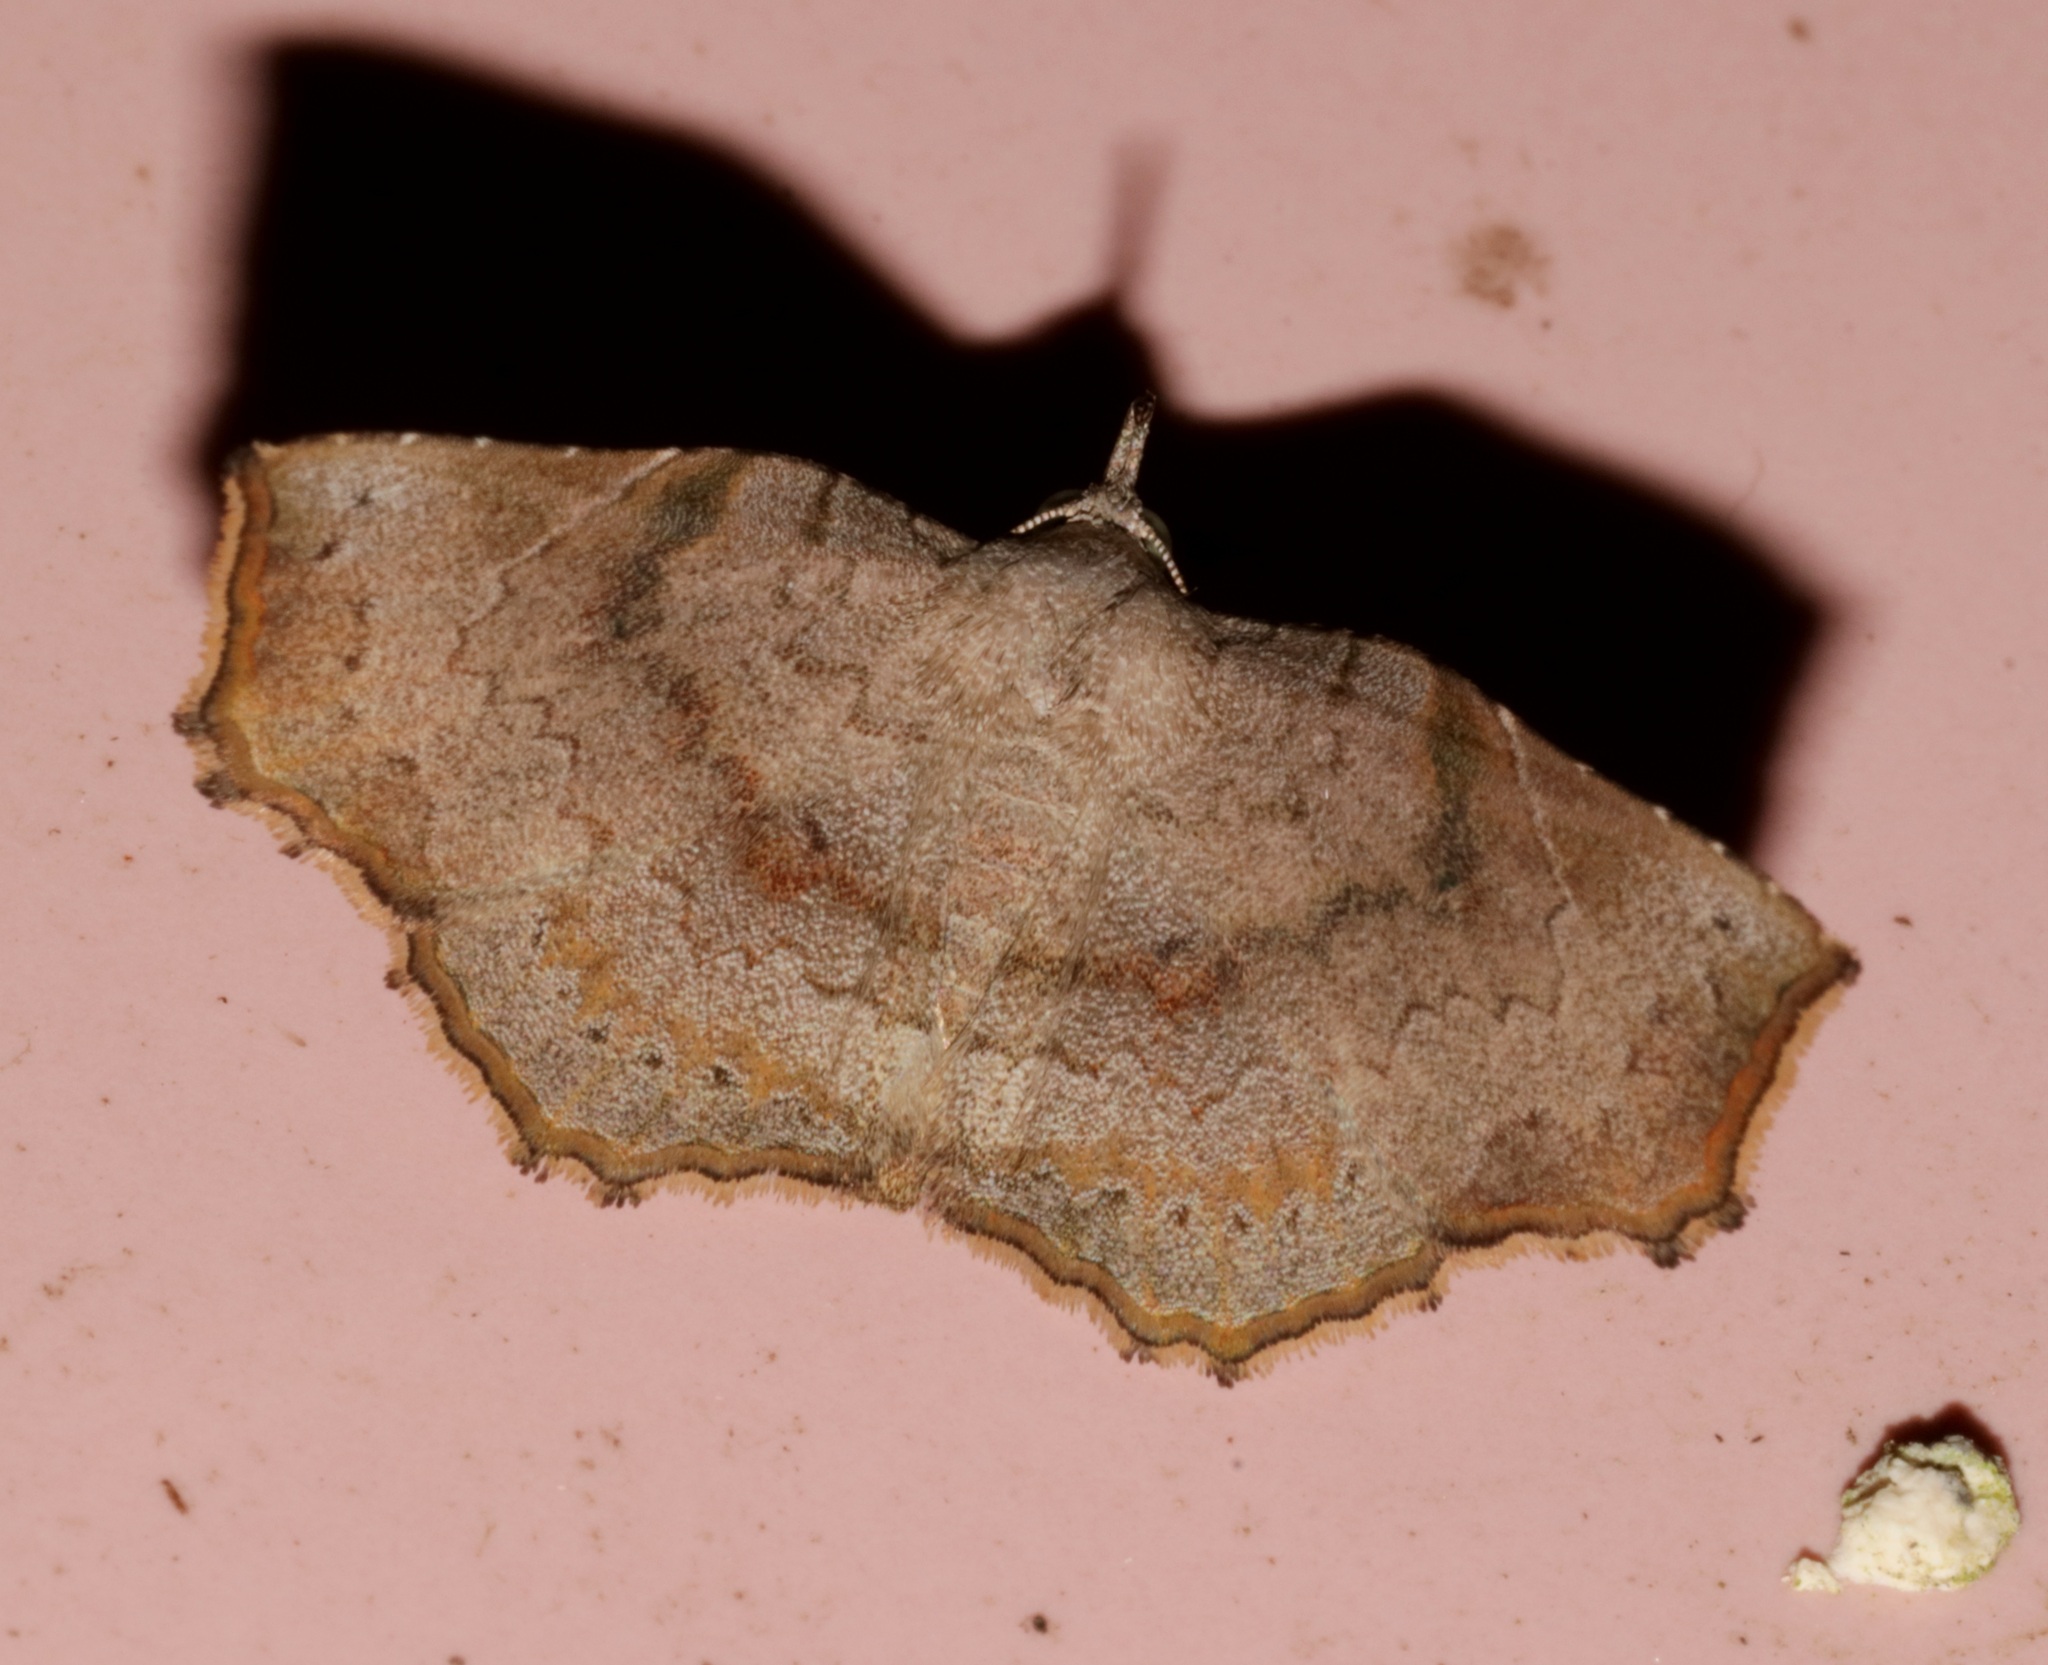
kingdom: Animalia
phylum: Arthropoda
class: Insecta
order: Lepidoptera
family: Erebidae
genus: Egnasia
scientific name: Egnasia seclusalis
